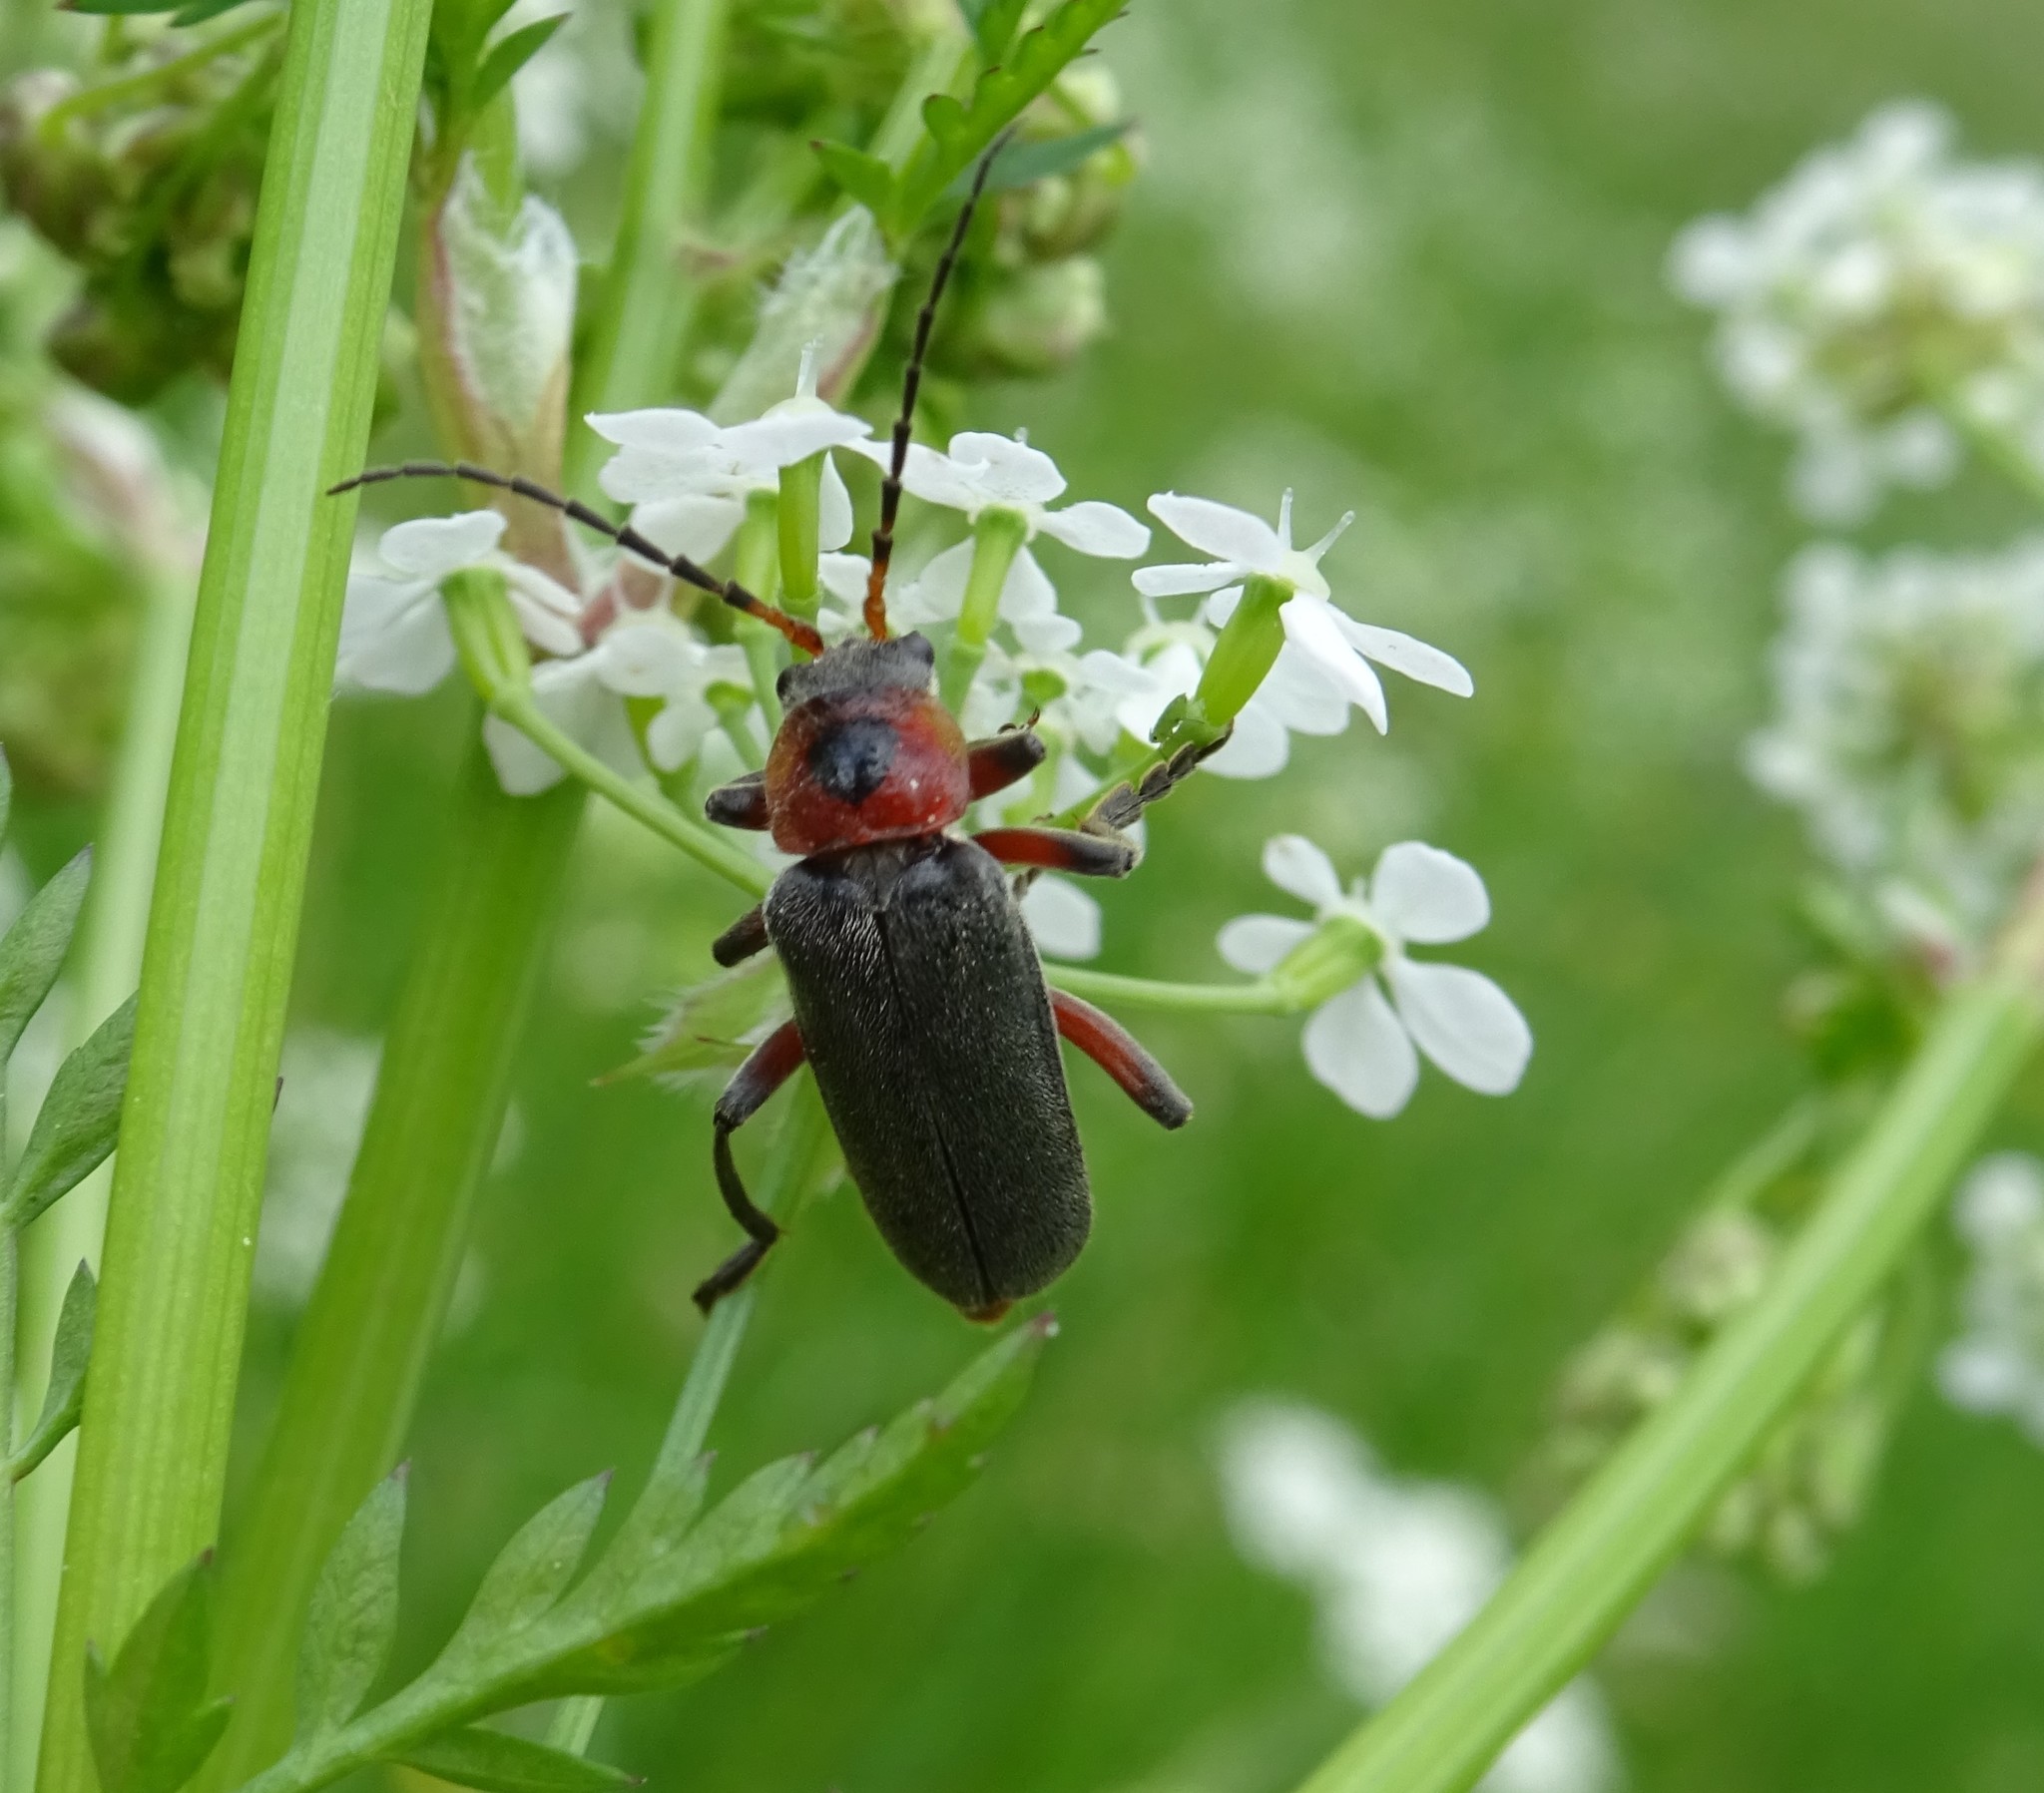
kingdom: Animalia
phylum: Arthropoda
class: Insecta
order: Coleoptera
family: Cantharidae
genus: Cantharis
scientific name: Cantharis rustica
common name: Soldier beetle
